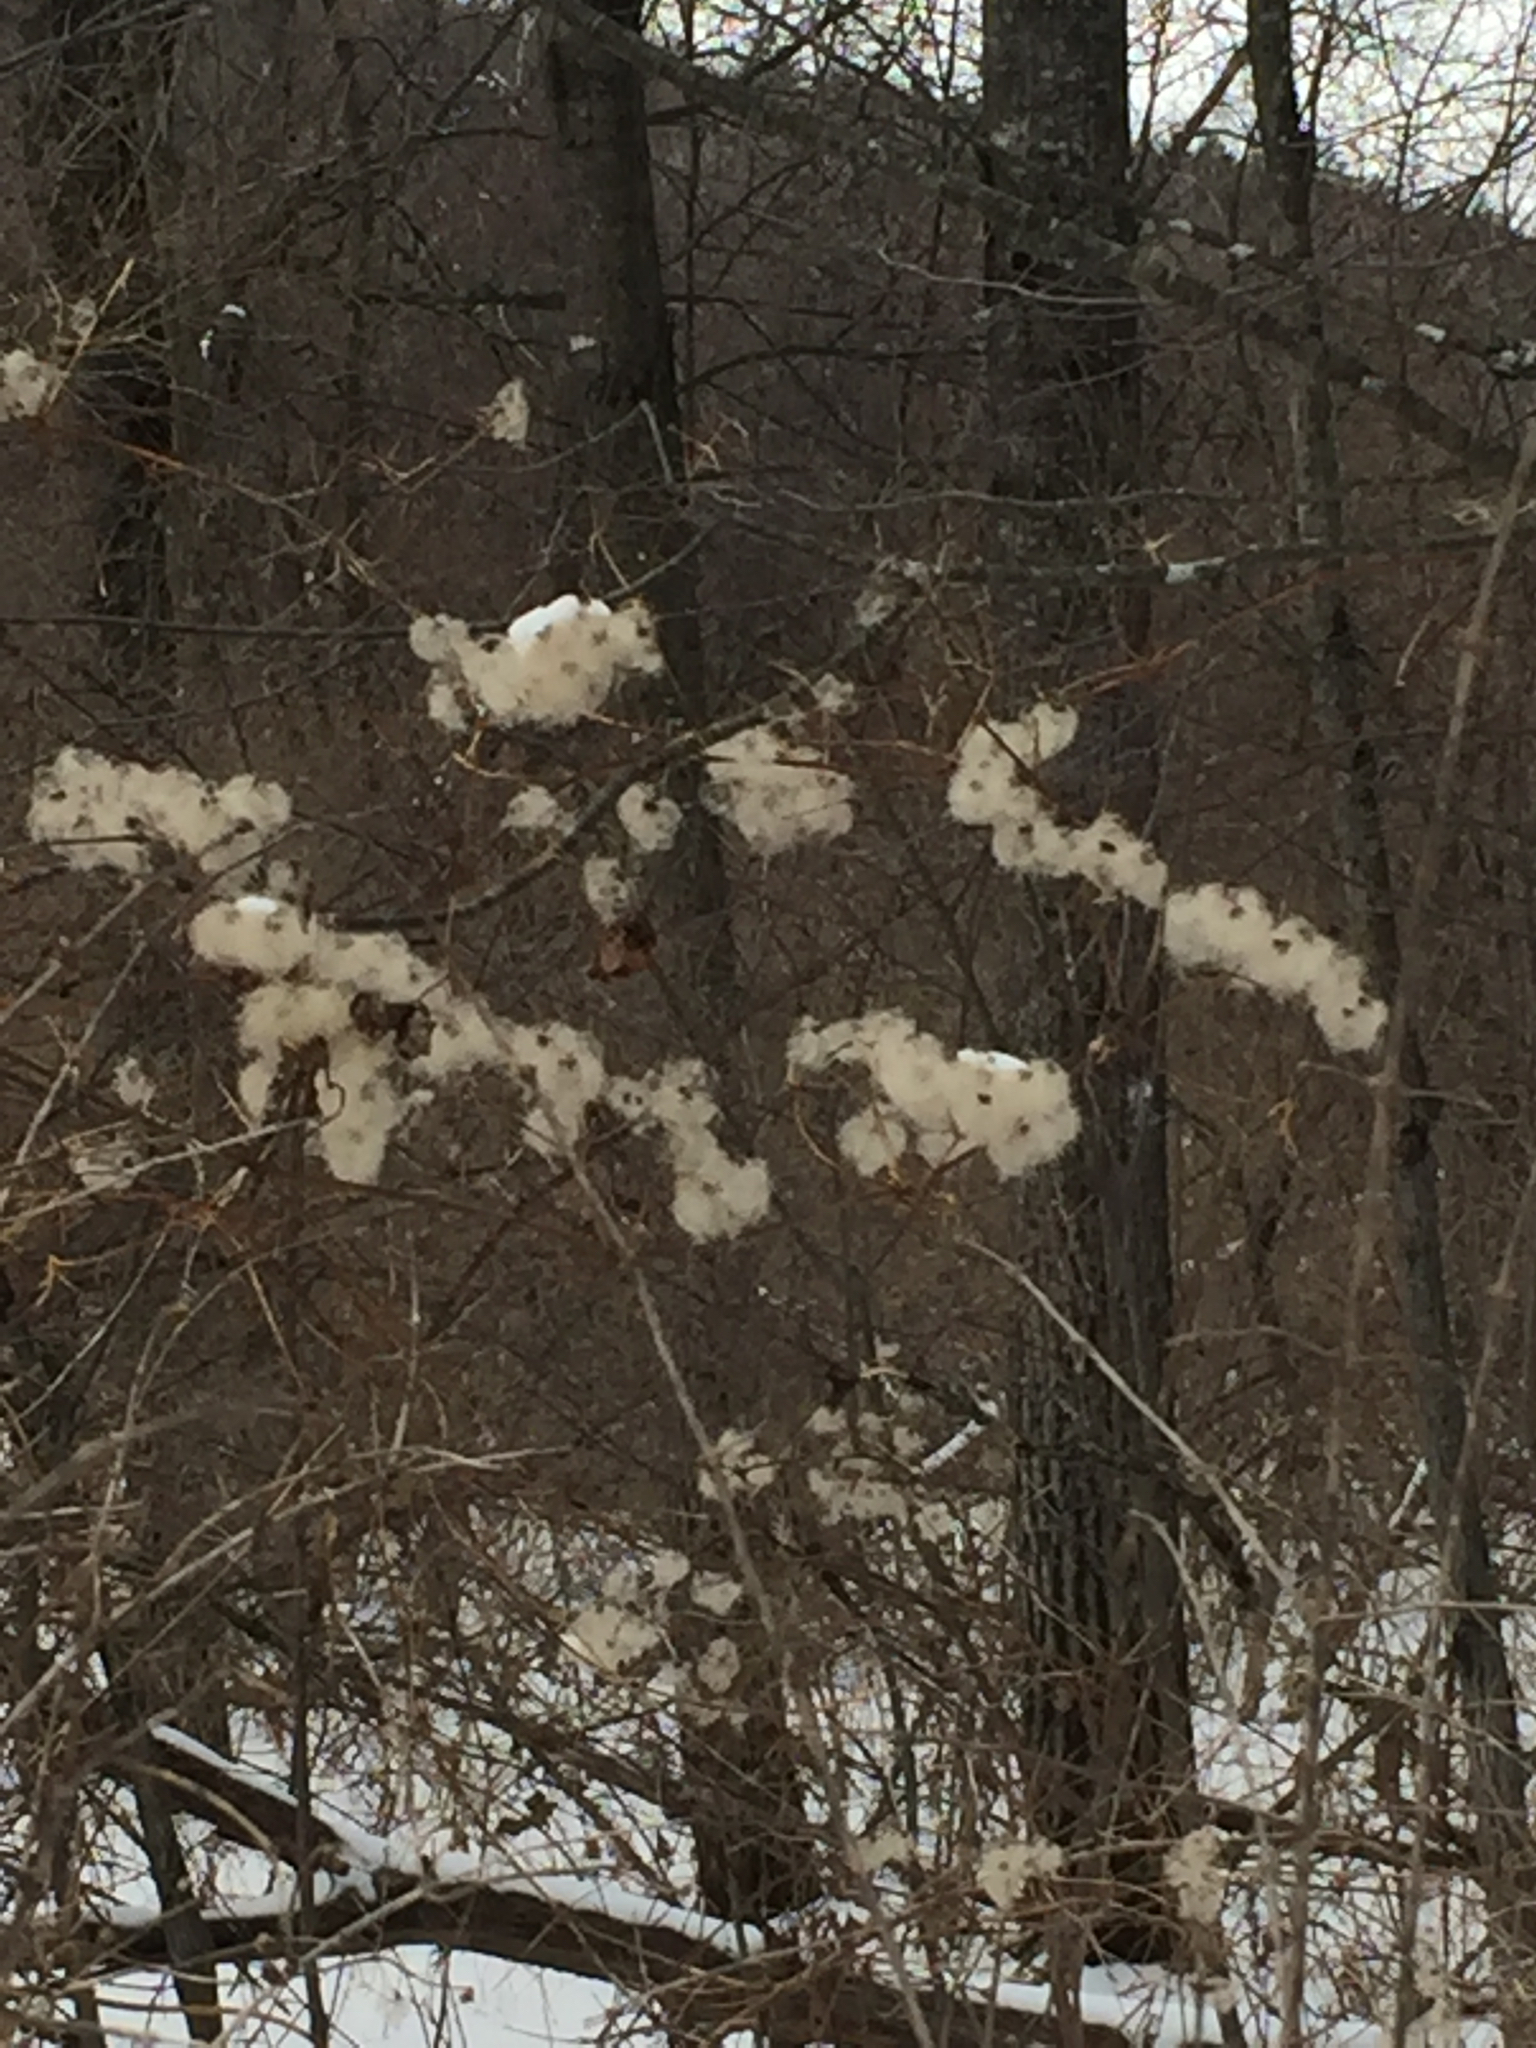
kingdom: Plantae
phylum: Tracheophyta
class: Magnoliopsida
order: Ranunculales
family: Ranunculaceae
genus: Clematis
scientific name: Clematis virginiana
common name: Virgin's-bower
